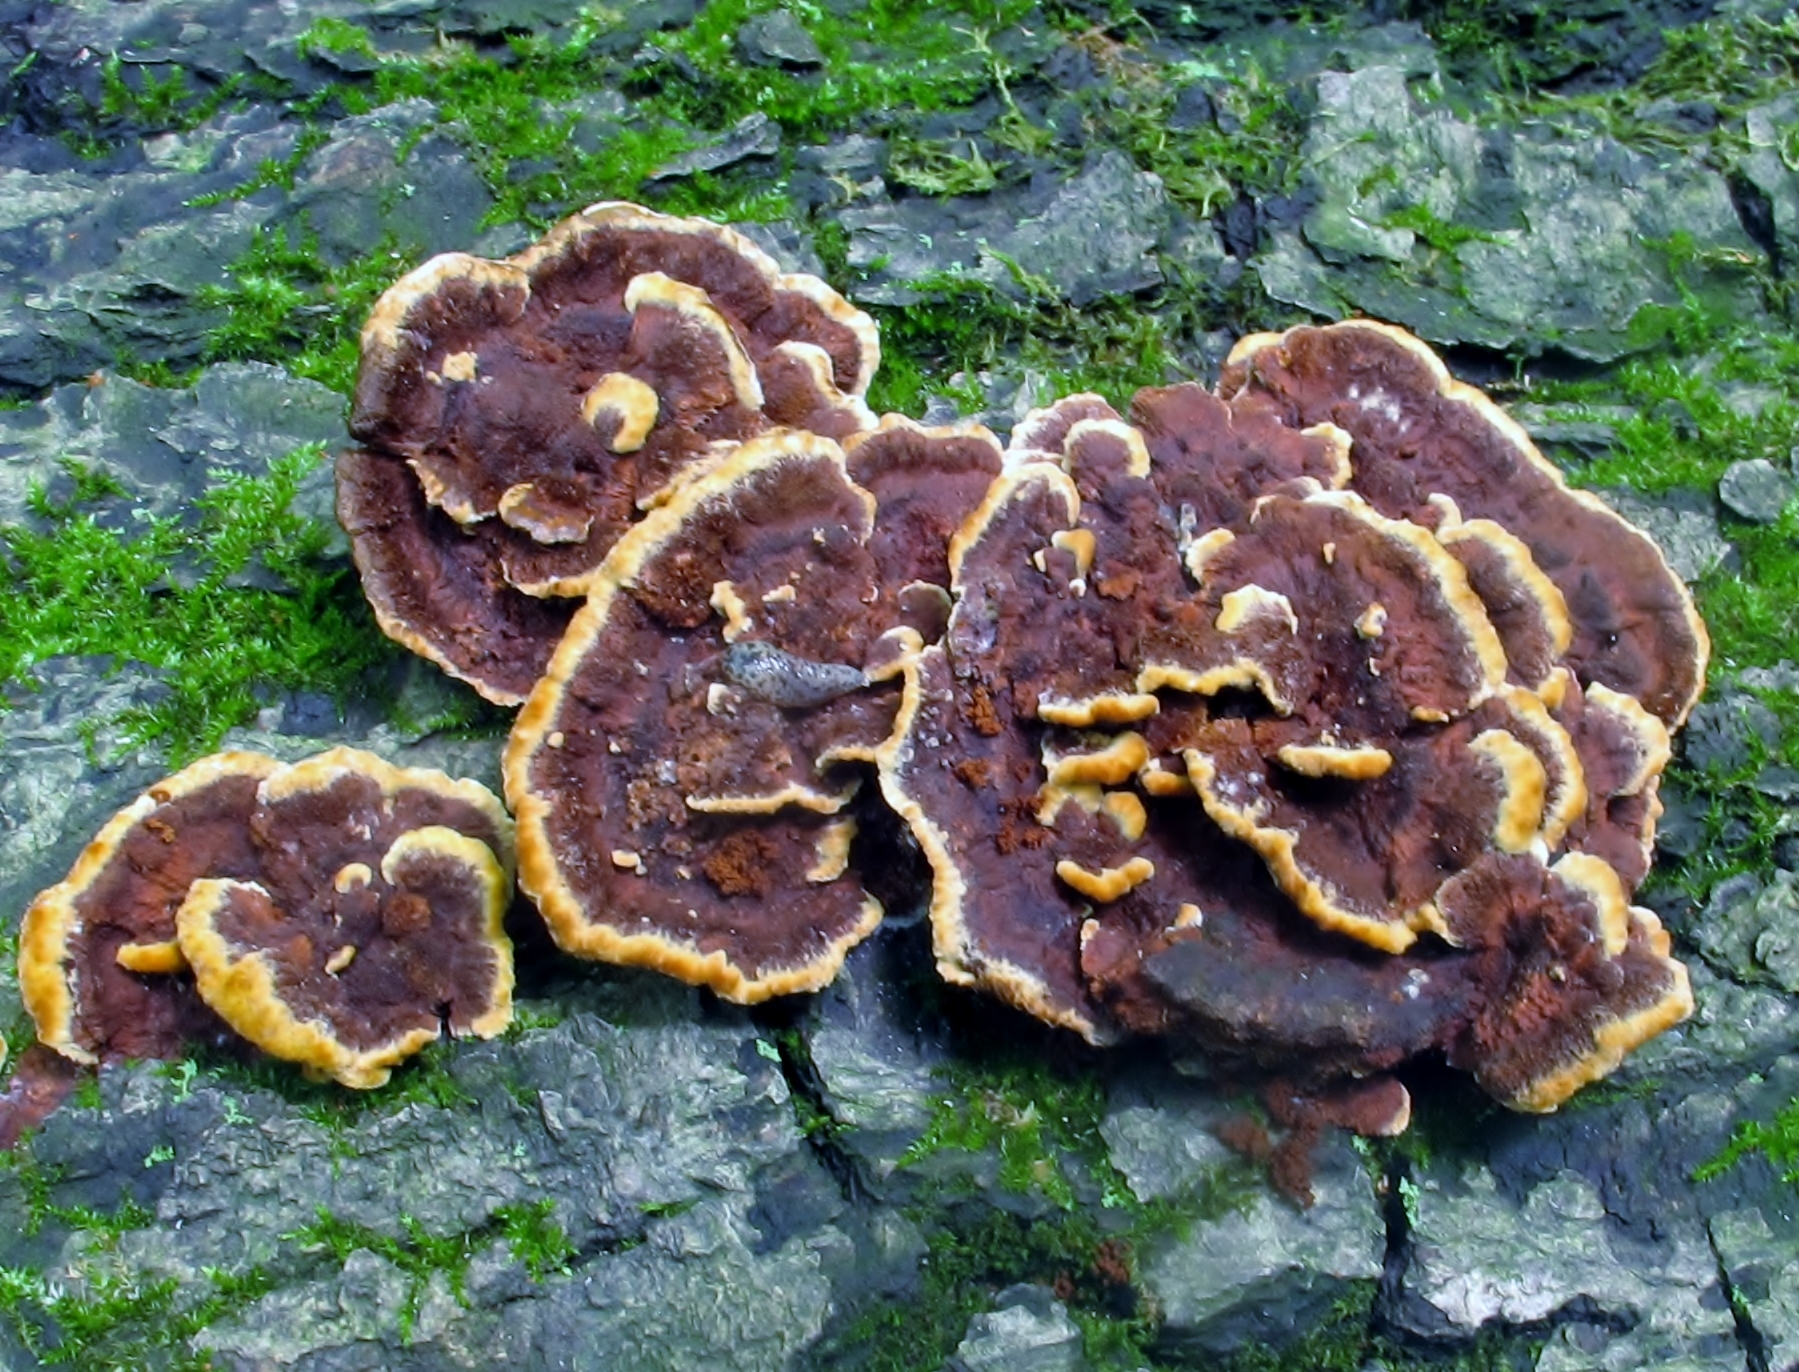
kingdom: Fungi
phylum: Basidiomycota
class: Agaricomycetes
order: Hymenochaetales
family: Hymenochaetaceae
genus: Phellinus
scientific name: Phellinus gilvus
